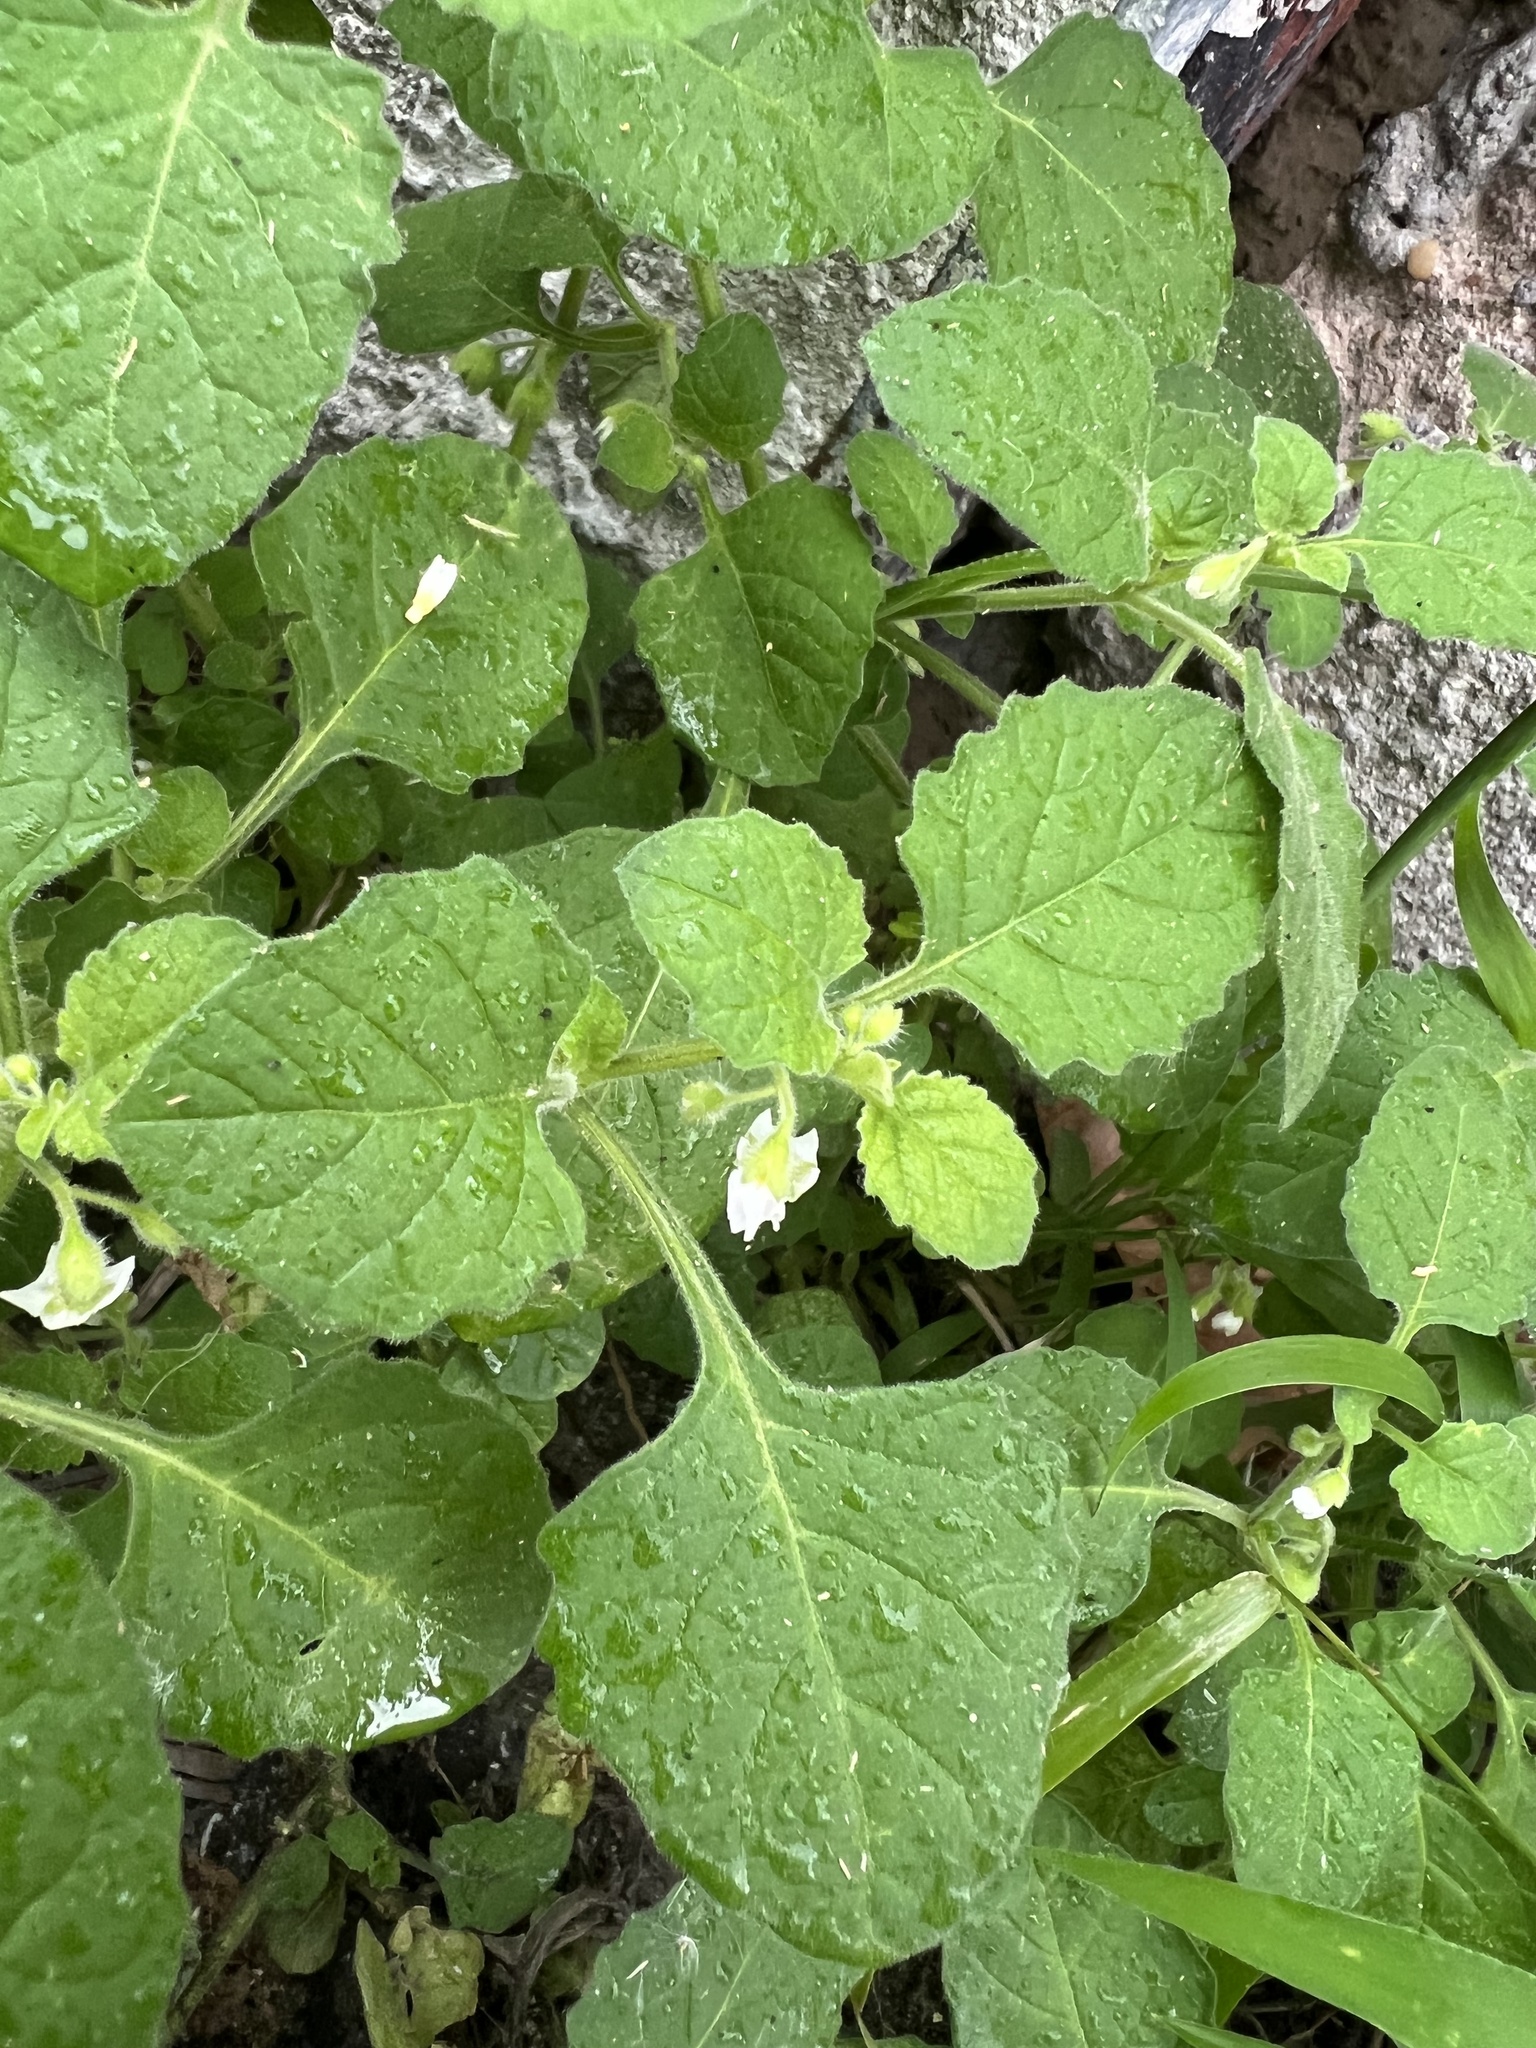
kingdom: Plantae
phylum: Tracheophyta
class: Magnoliopsida
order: Solanales
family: Solanaceae
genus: Solanum
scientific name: Solanum sarrachoides
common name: Leafy-fruited nightshade
